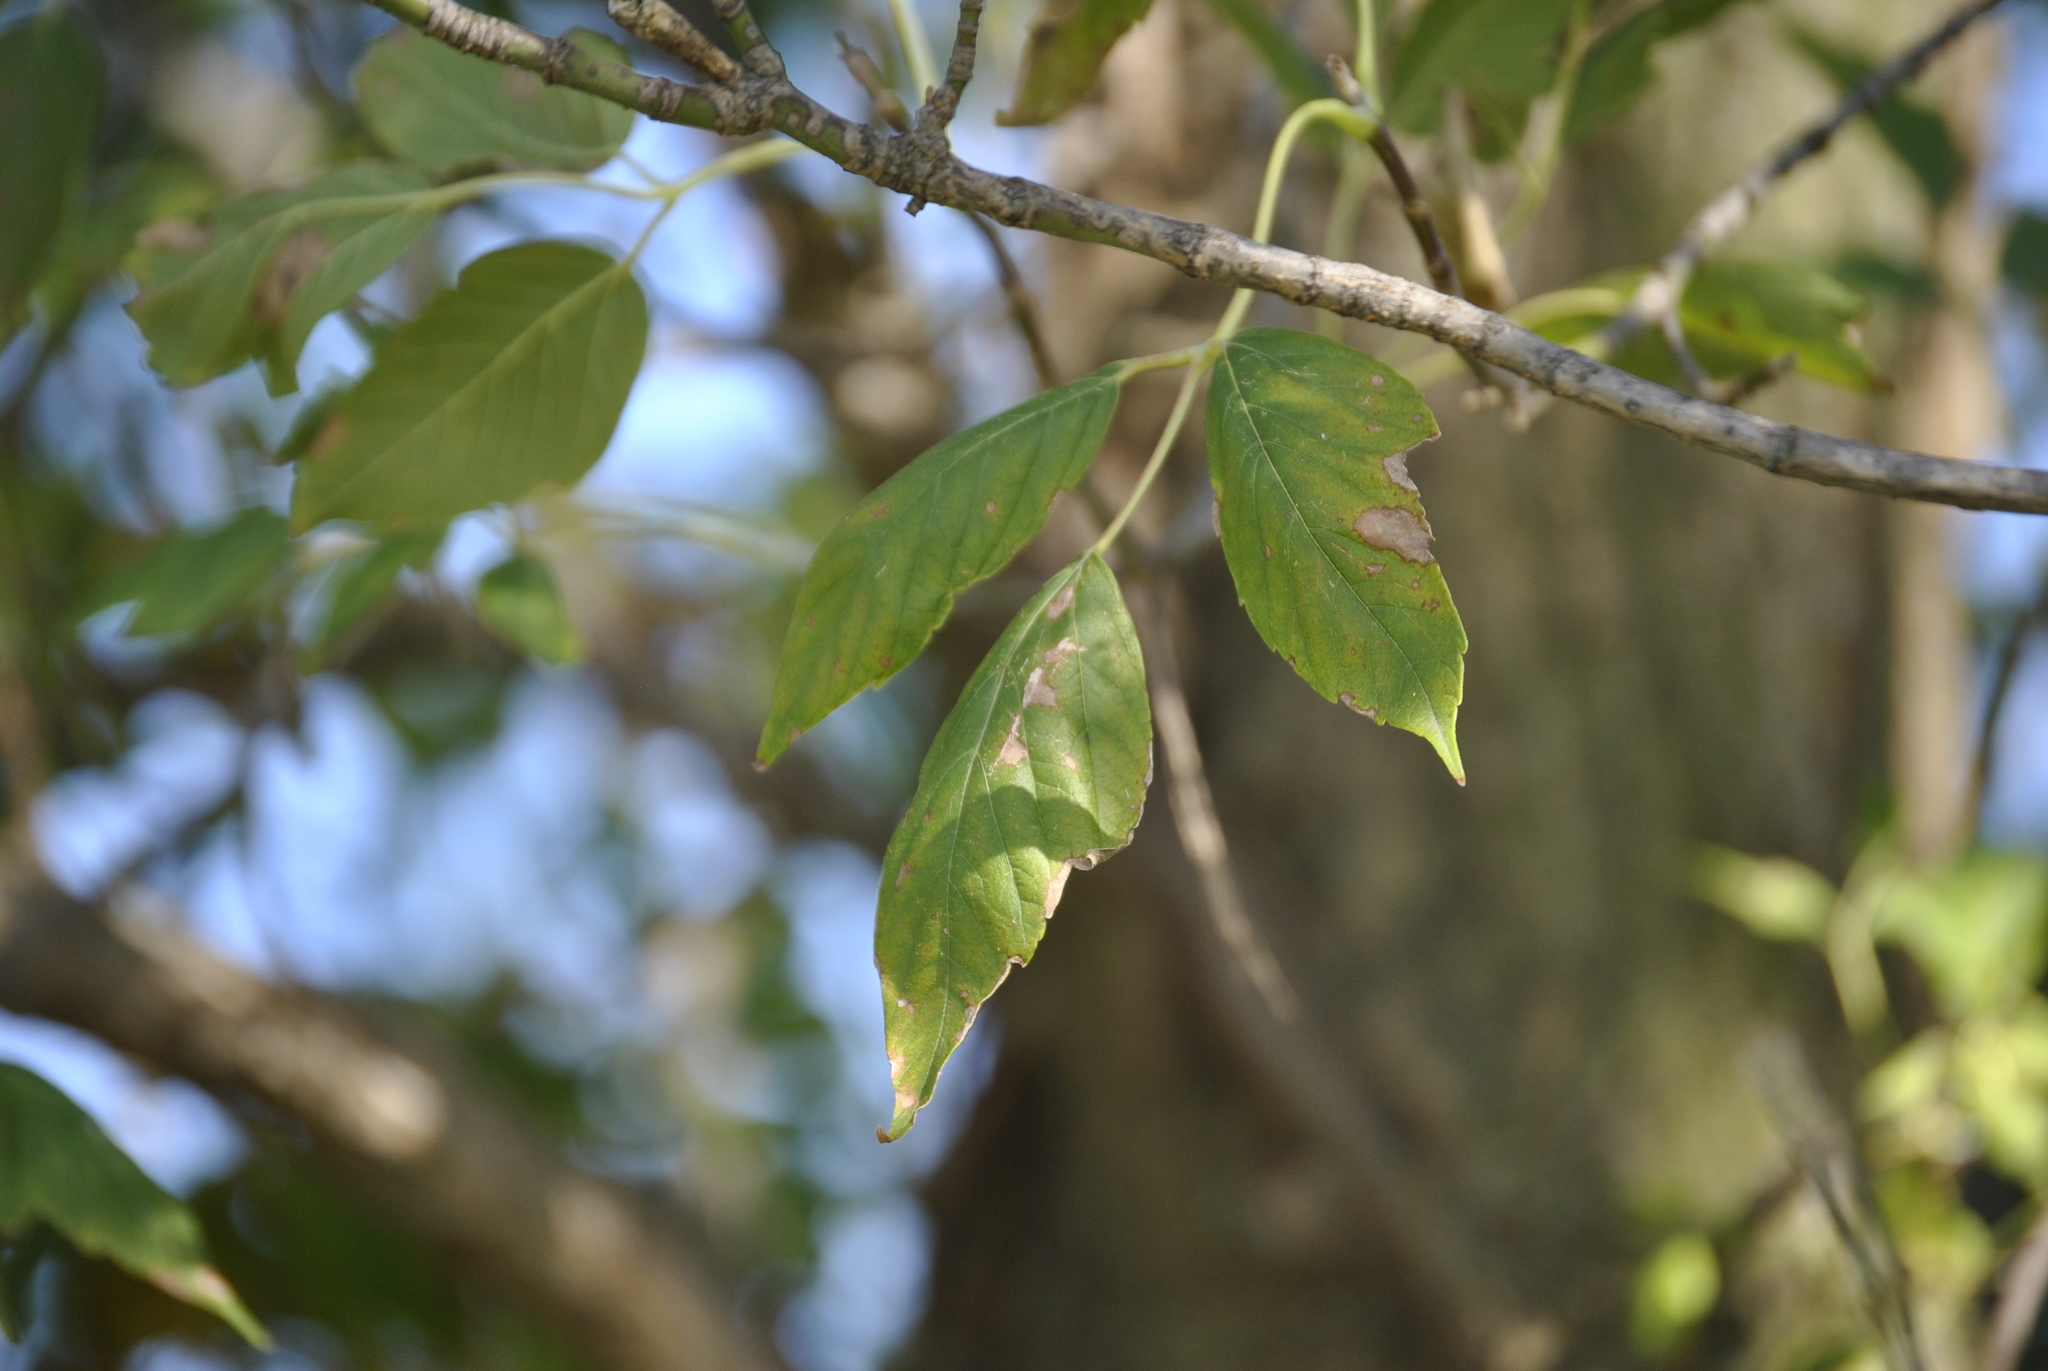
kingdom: Plantae
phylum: Tracheophyta
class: Magnoliopsida
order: Sapindales
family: Anacardiaceae
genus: Toxicodendron
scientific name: Toxicodendron radicans
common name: Poison ivy
